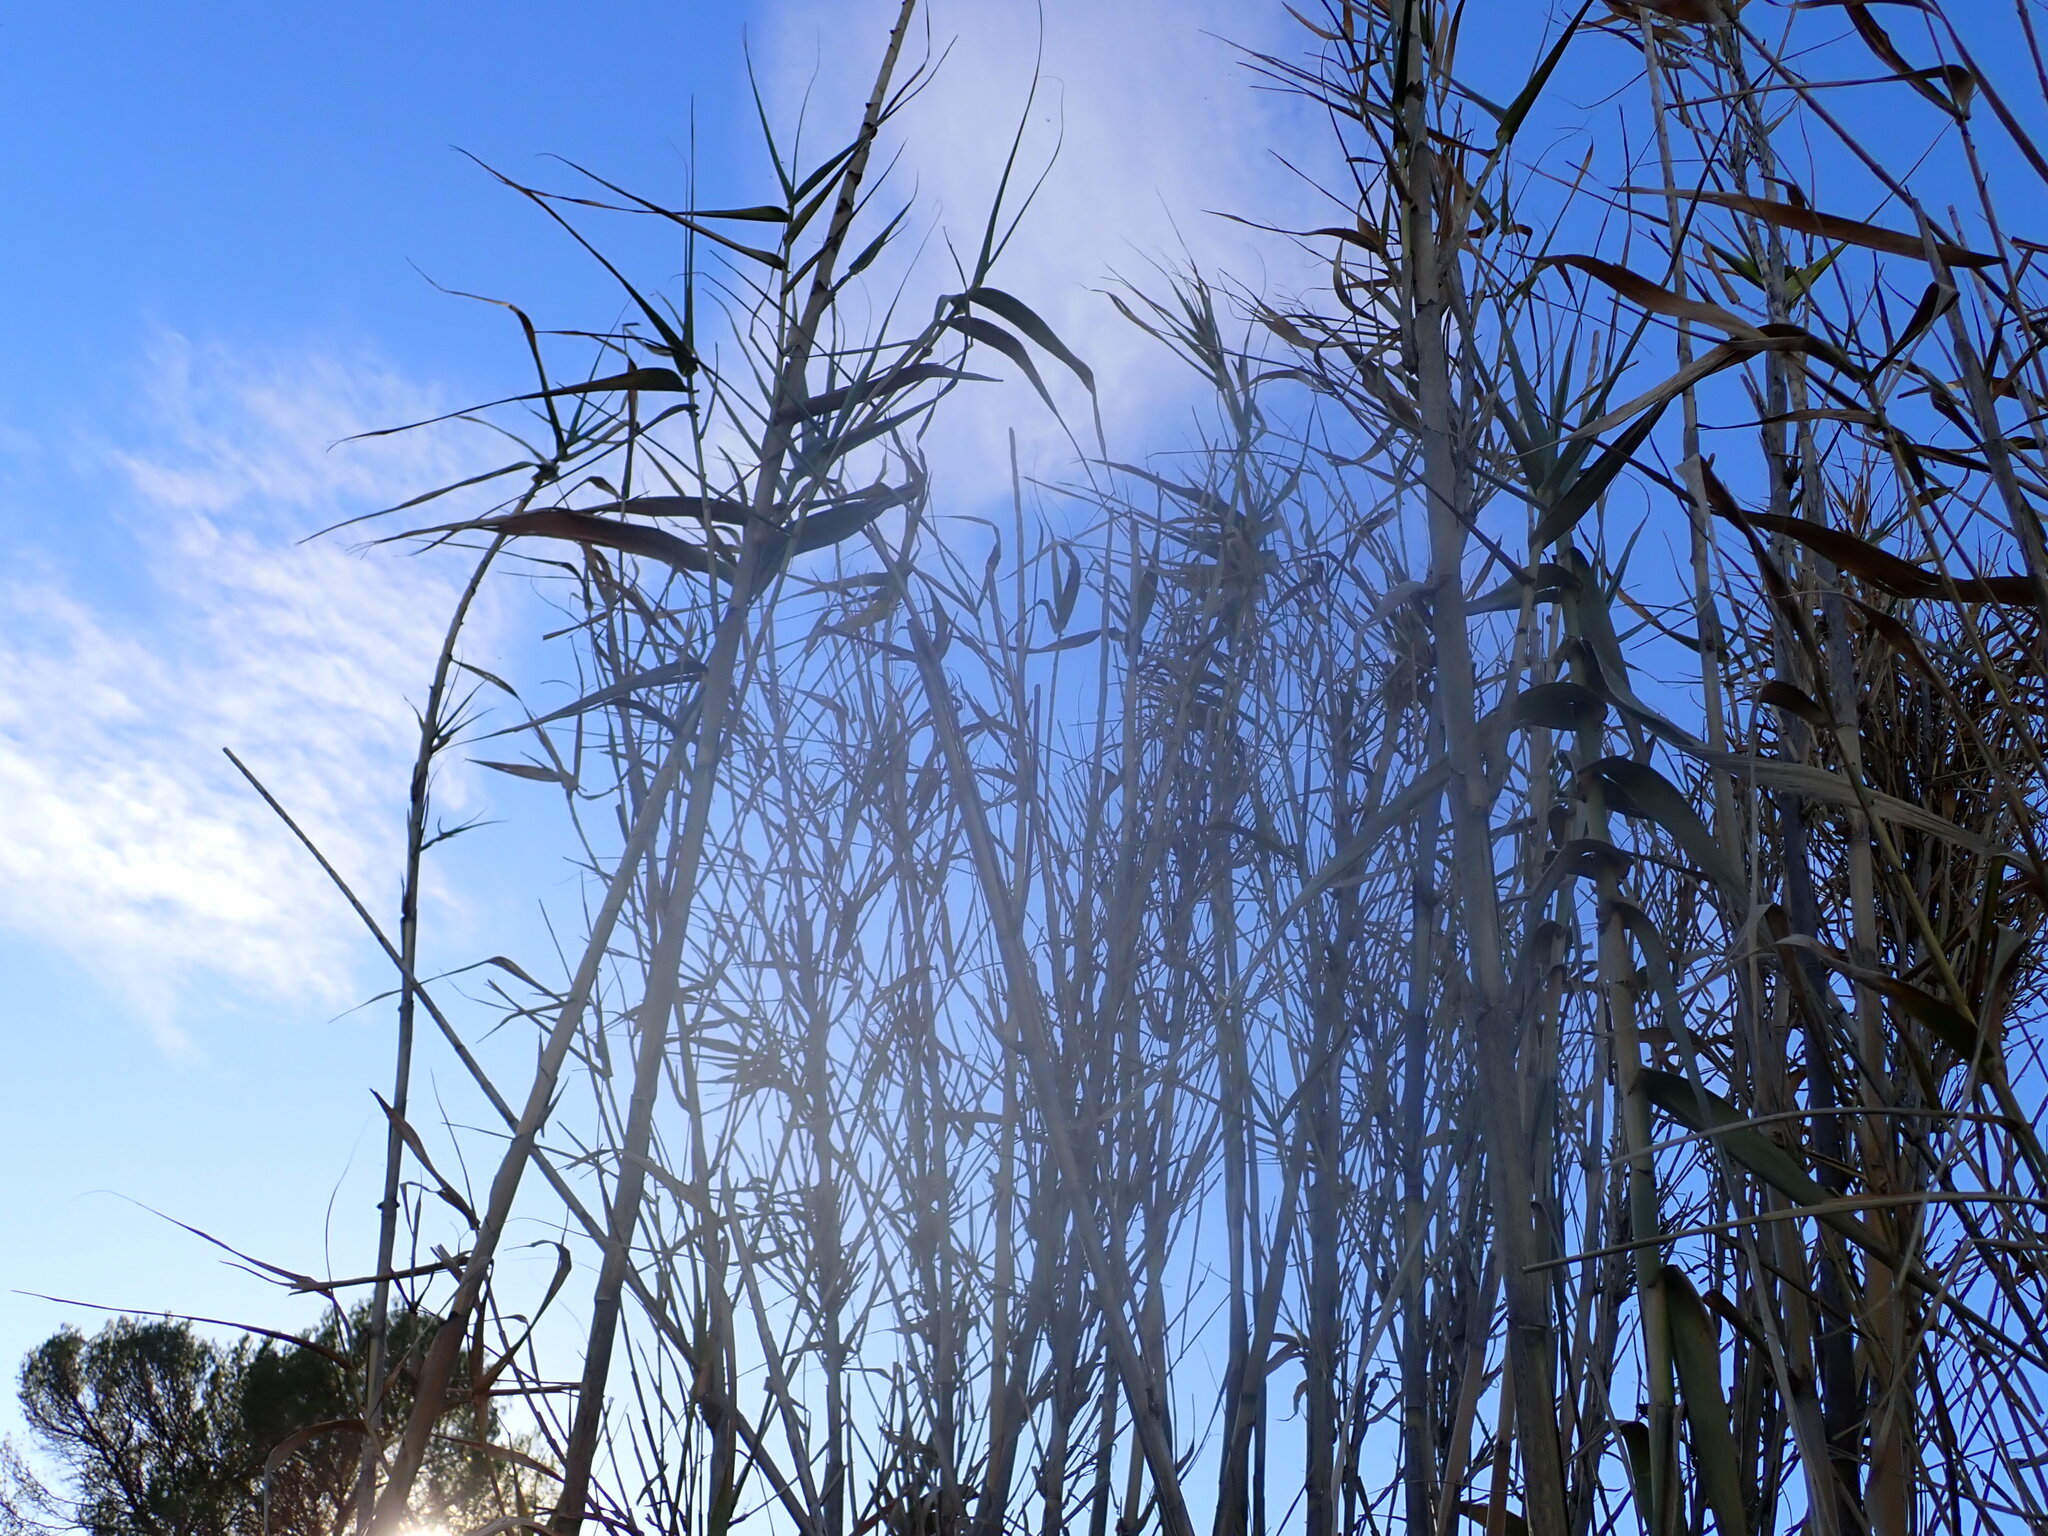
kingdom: Plantae
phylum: Tracheophyta
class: Liliopsida
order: Poales
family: Poaceae
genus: Arundo
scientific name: Arundo donax
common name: Giant reed
